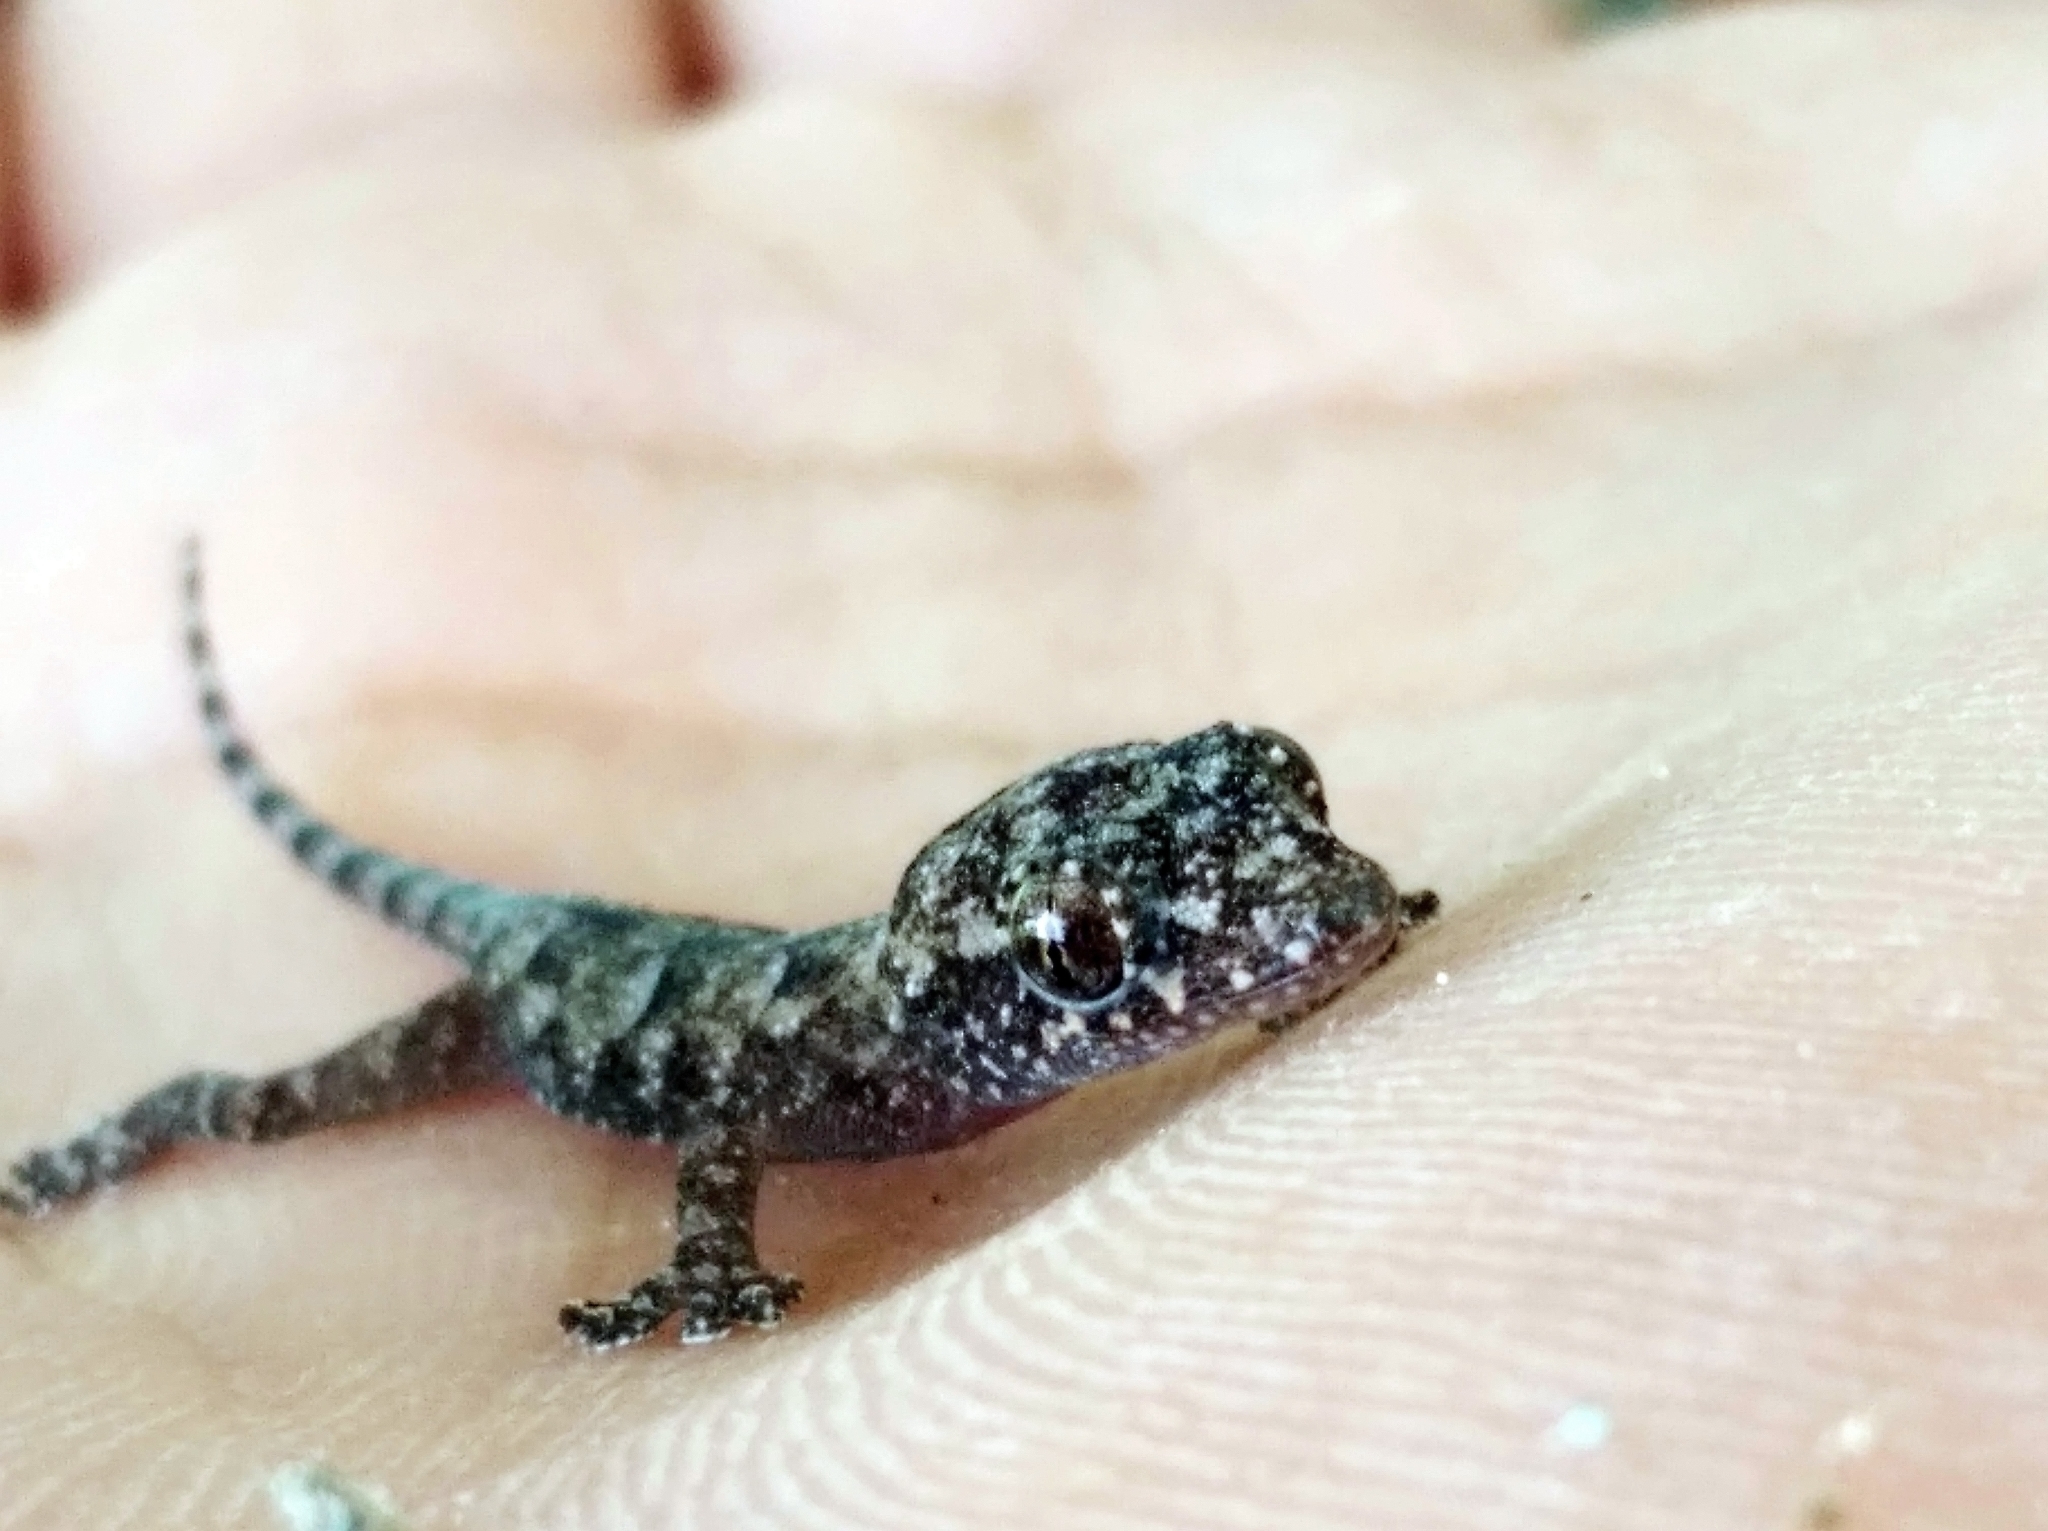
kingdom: Animalia
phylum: Chordata
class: Squamata
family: Gekkonidae
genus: Hemidactylus
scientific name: Hemidactylus mabouia
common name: House gecko
